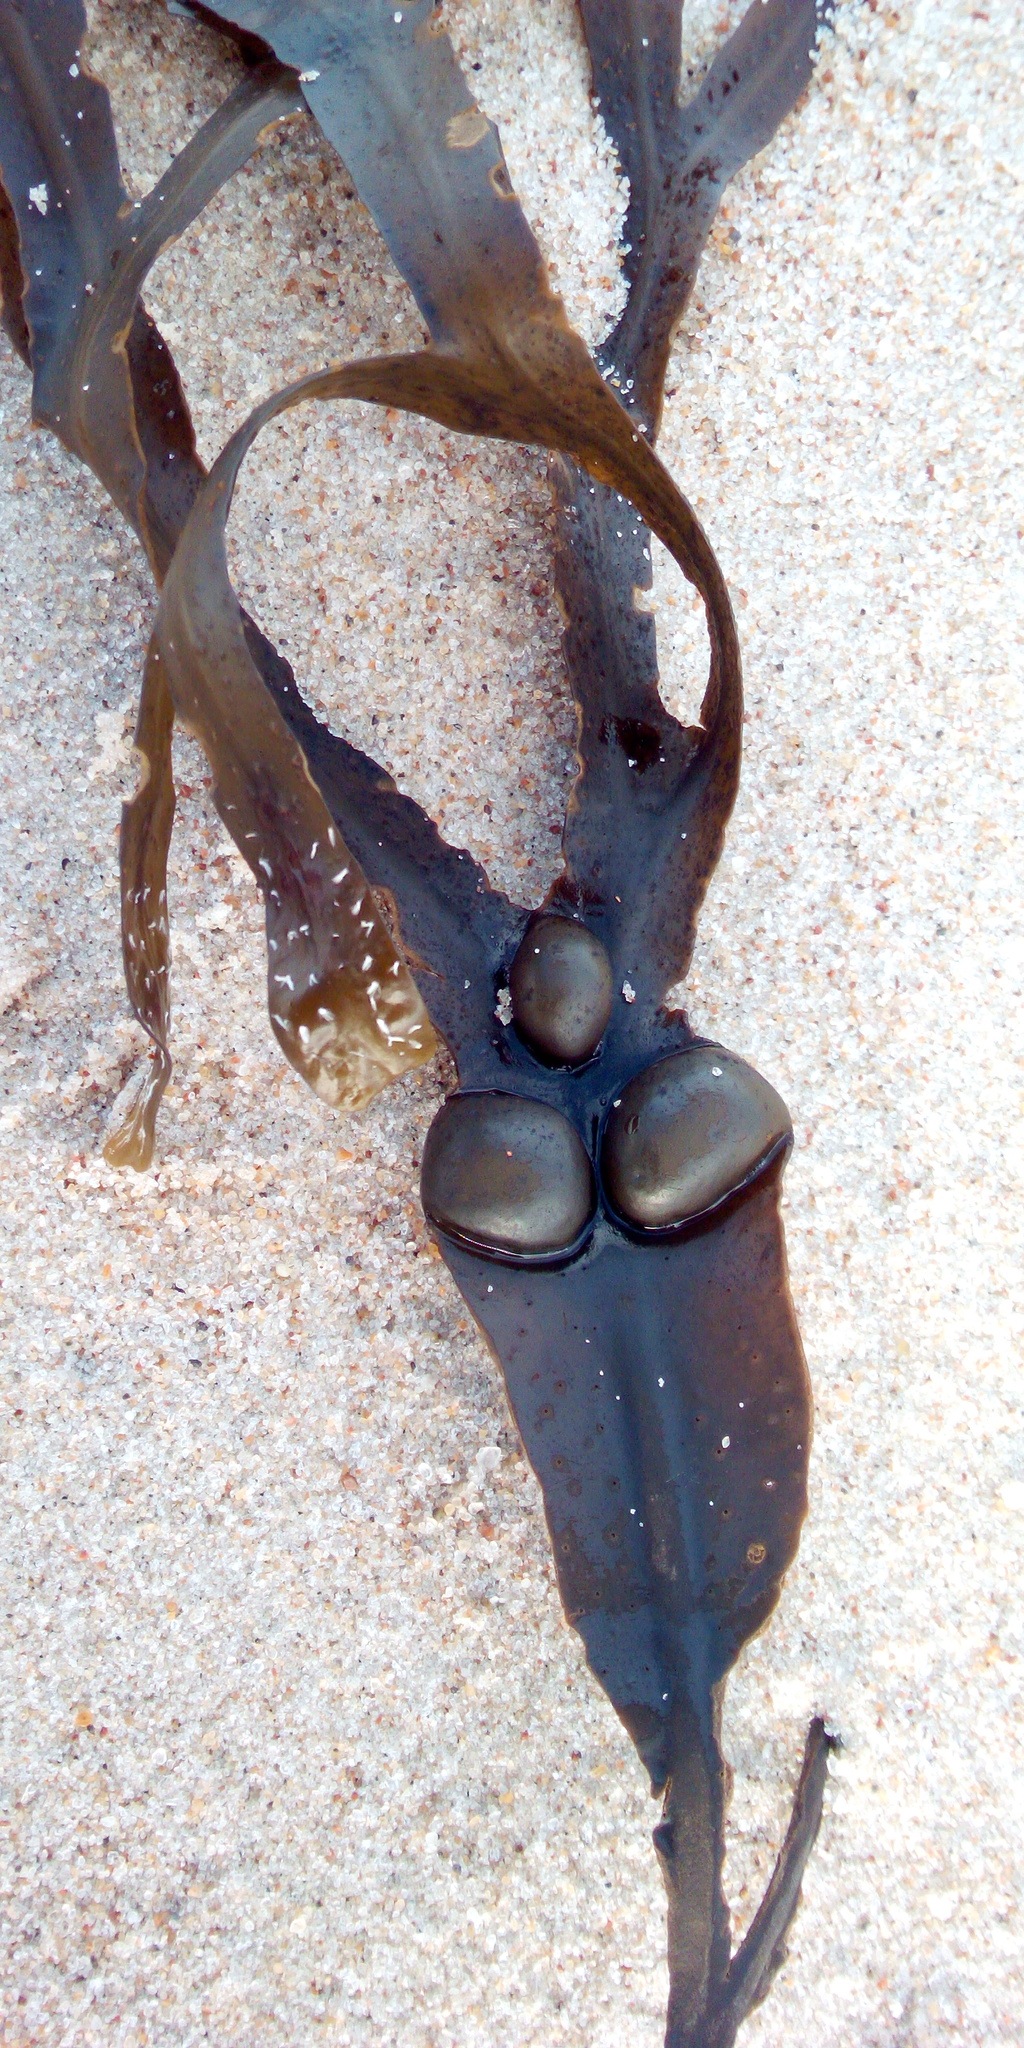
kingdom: Chromista
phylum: Ochrophyta
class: Phaeophyceae
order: Fucales
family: Fucaceae
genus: Fucus
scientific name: Fucus vesiculosus
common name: Bladder wrack
